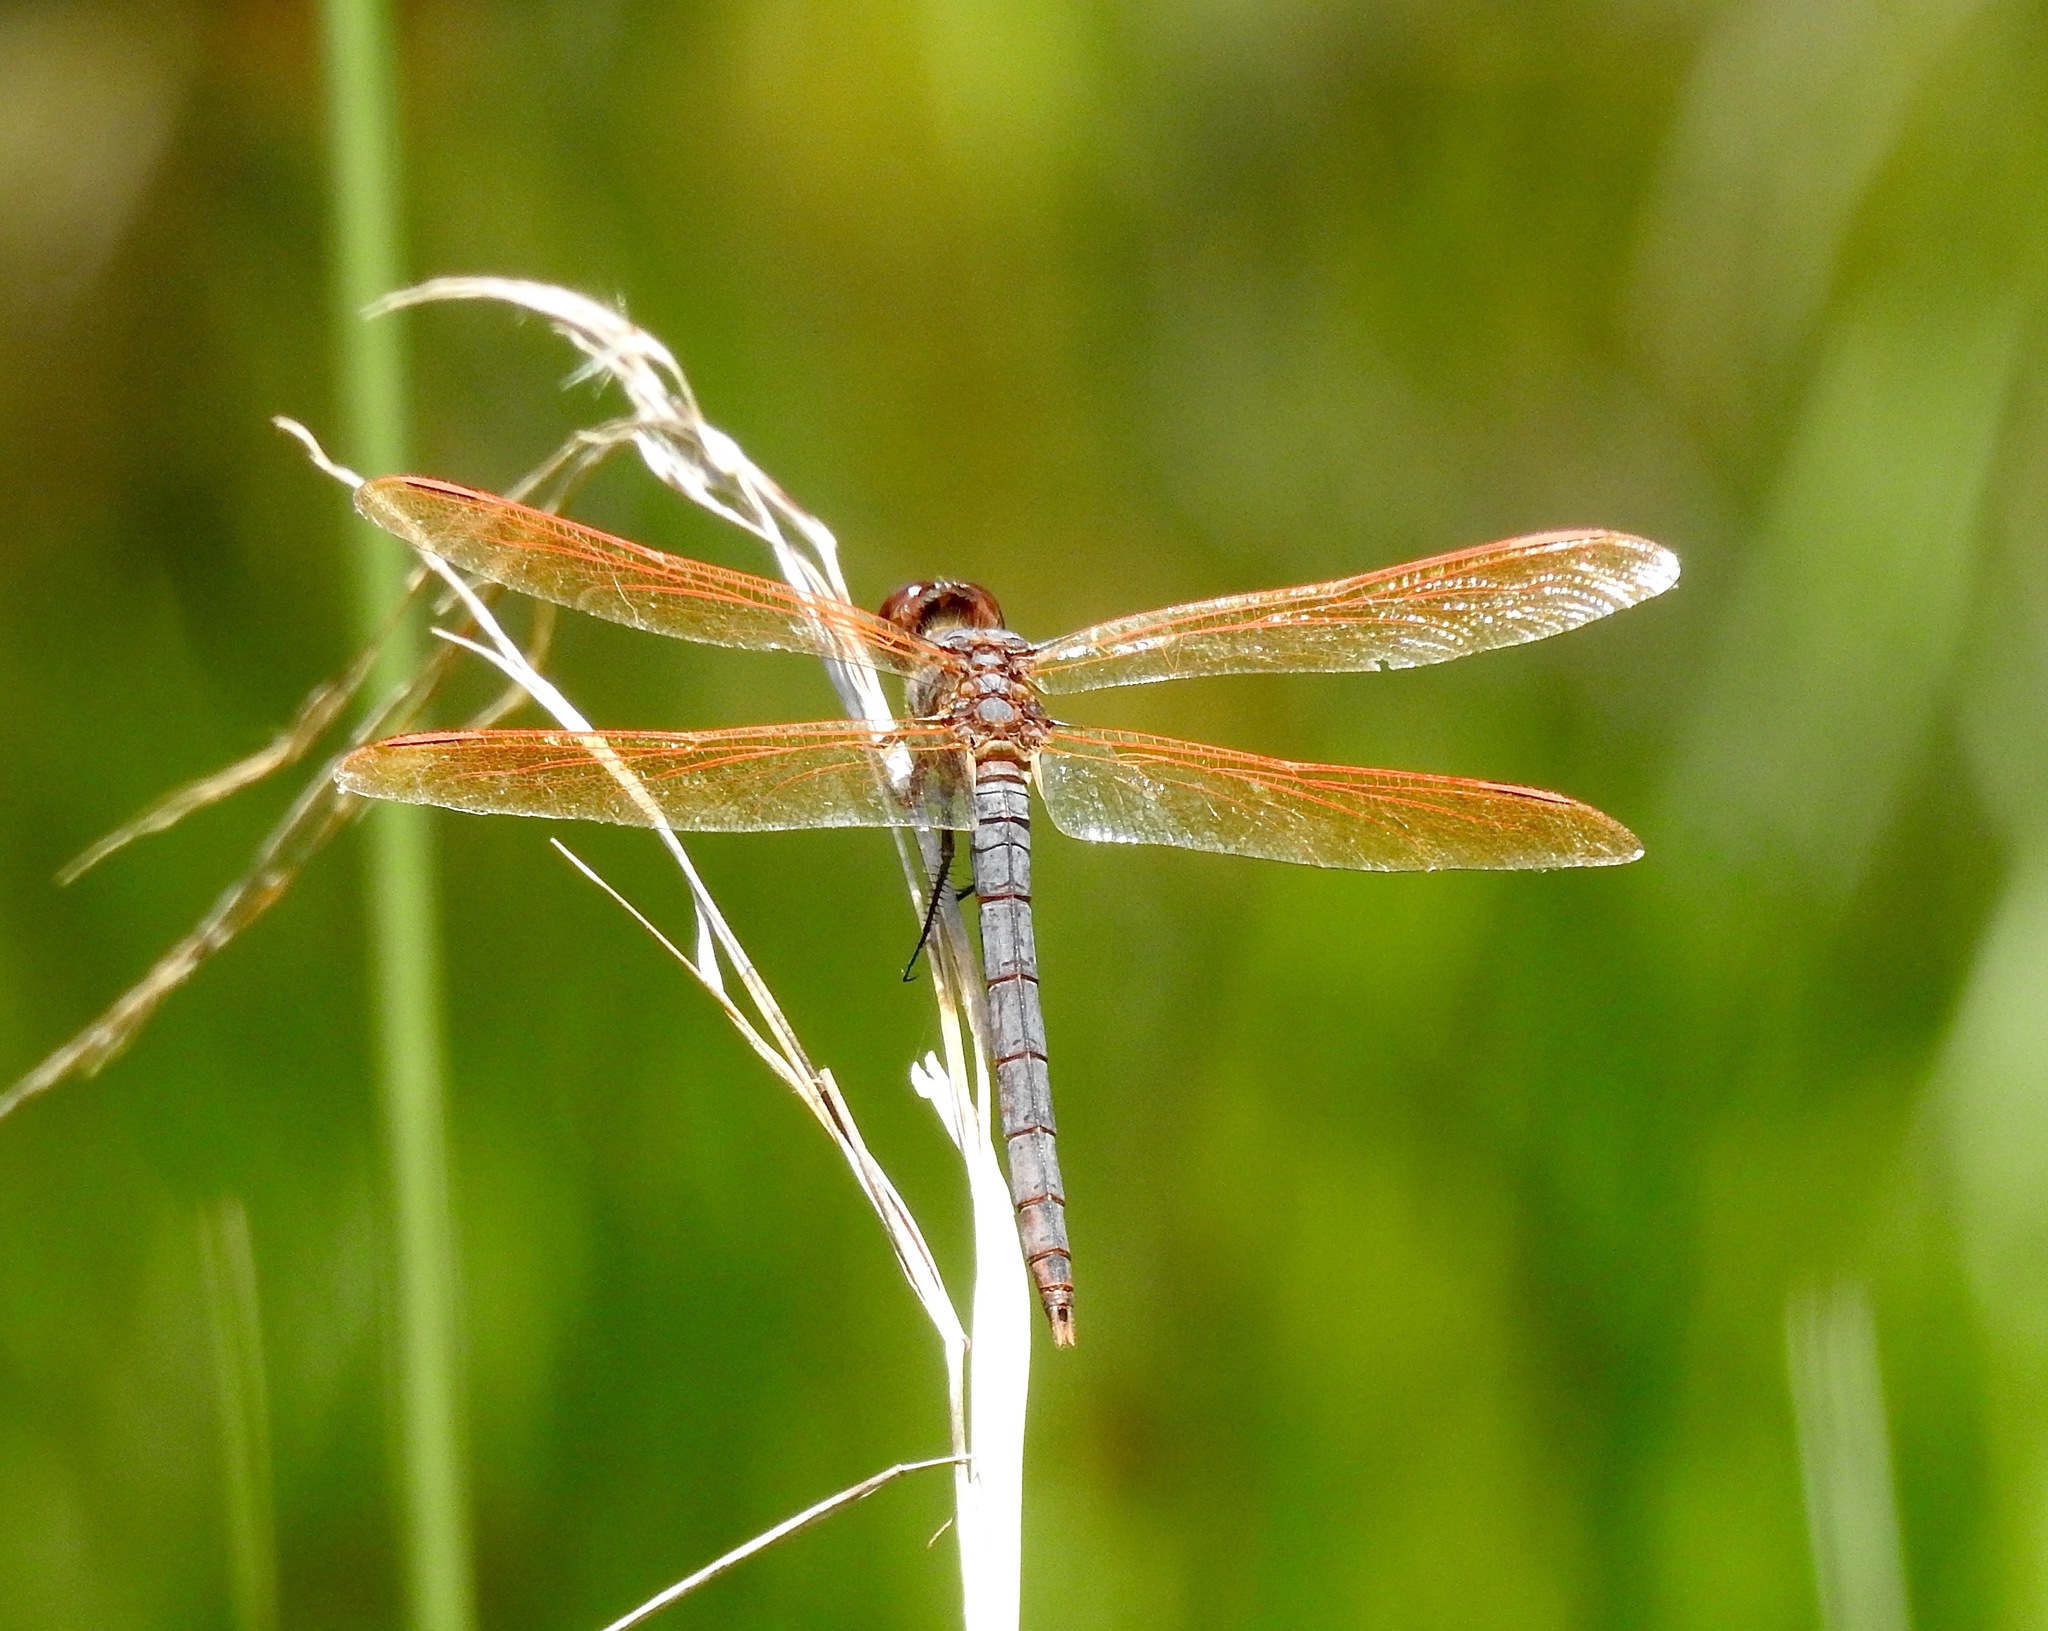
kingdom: Animalia
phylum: Arthropoda
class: Insecta
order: Odonata
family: Libellulidae
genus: Libellula
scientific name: Libellula jesseana
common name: Purple skimmer
